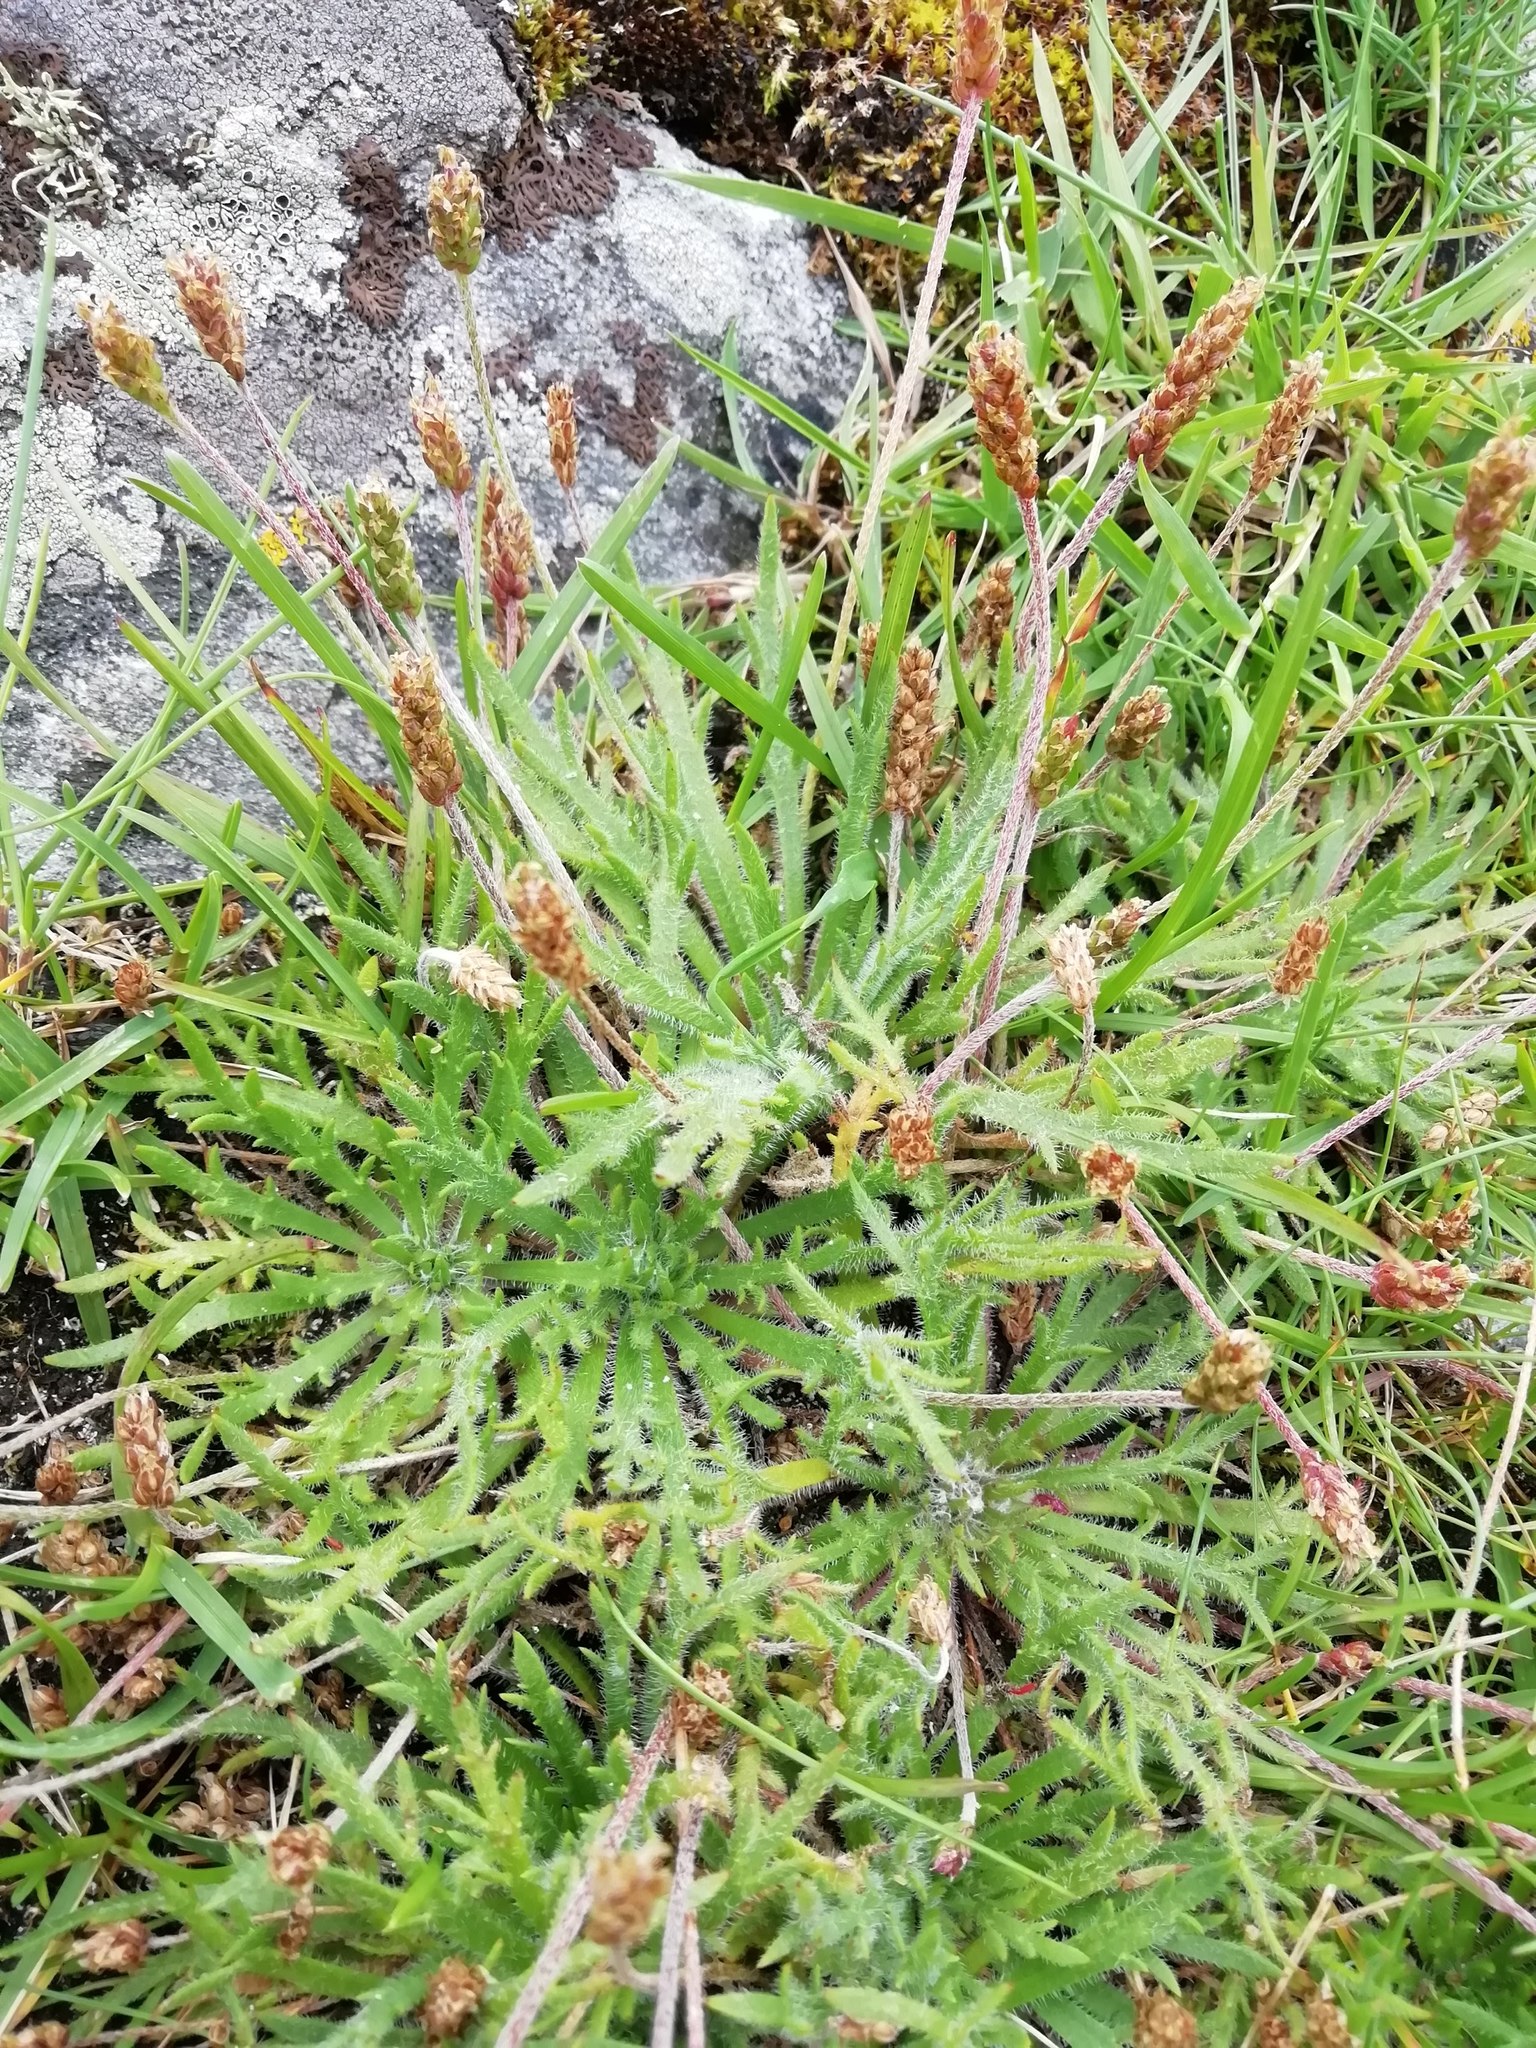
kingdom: Plantae
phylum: Tracheophyta
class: Magnoliopsida
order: Lamiales
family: Plantaginaceae
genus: Plantago
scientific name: Plantago coronopus
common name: Buck's-horn plantain
